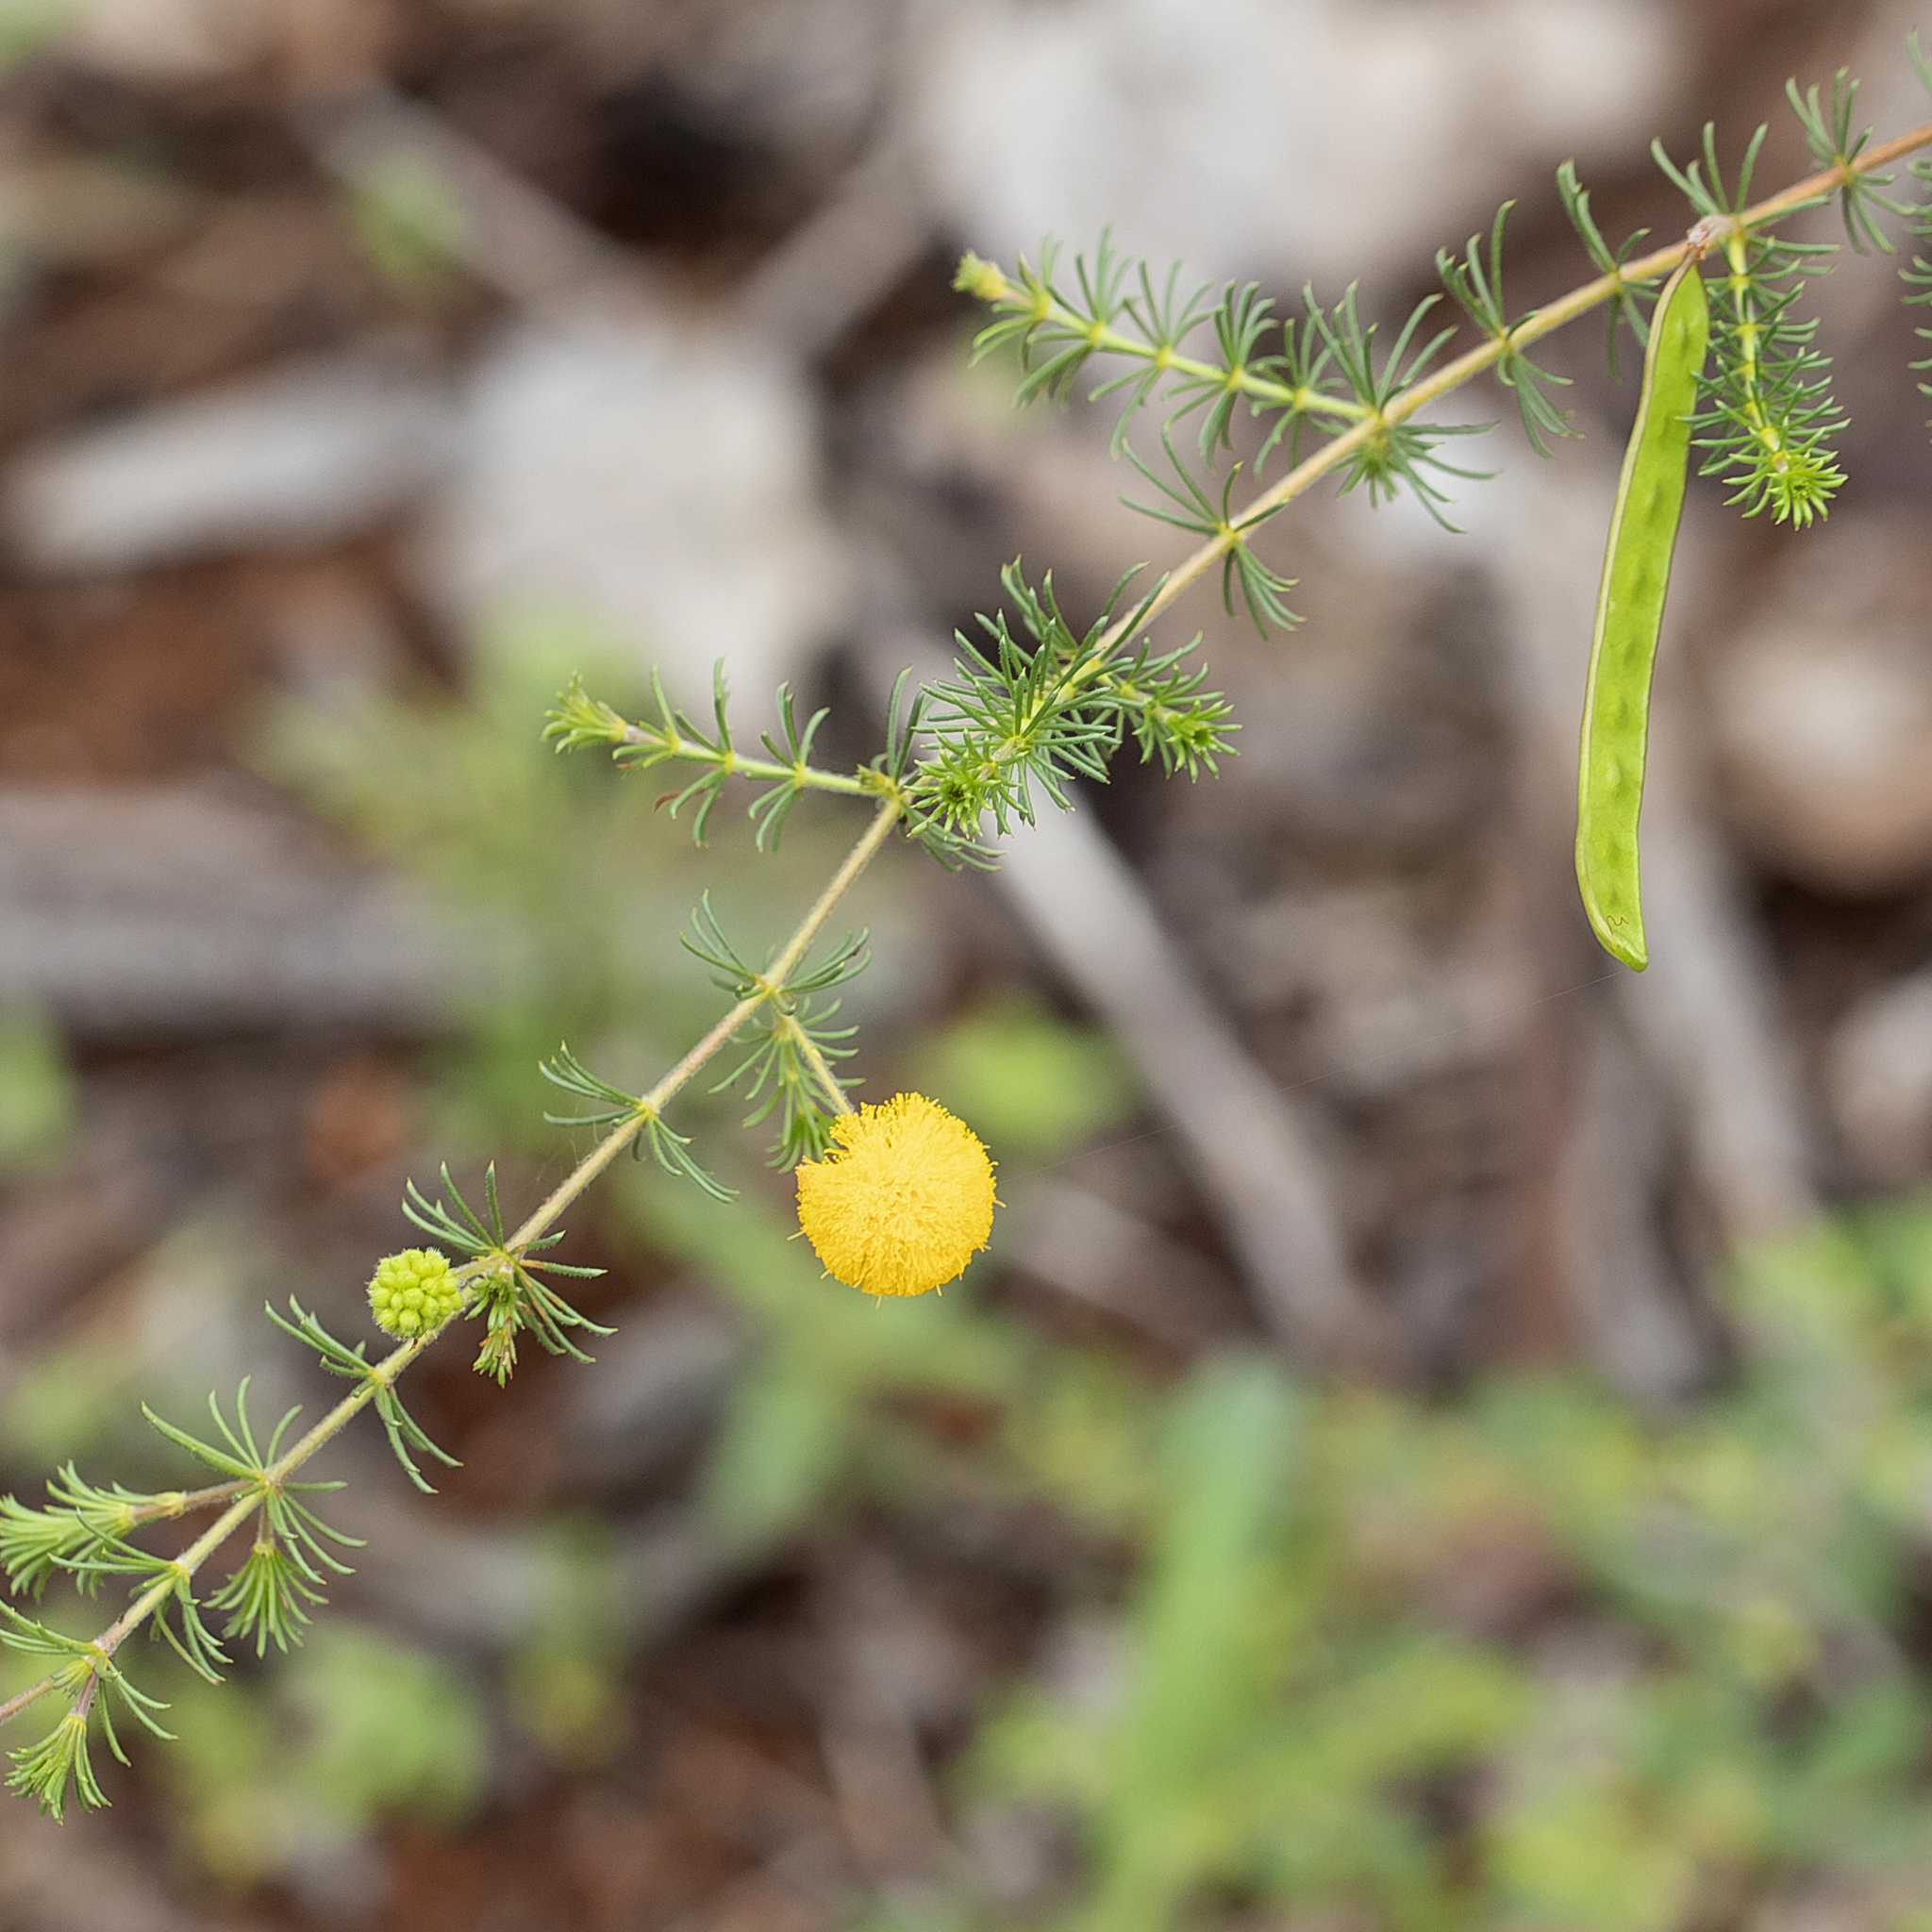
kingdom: Plantae
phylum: Tracheophyta
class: Magnoliopsida
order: Fabales
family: Fabaceae
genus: Acacia
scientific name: Acacia lycopodiifolia
